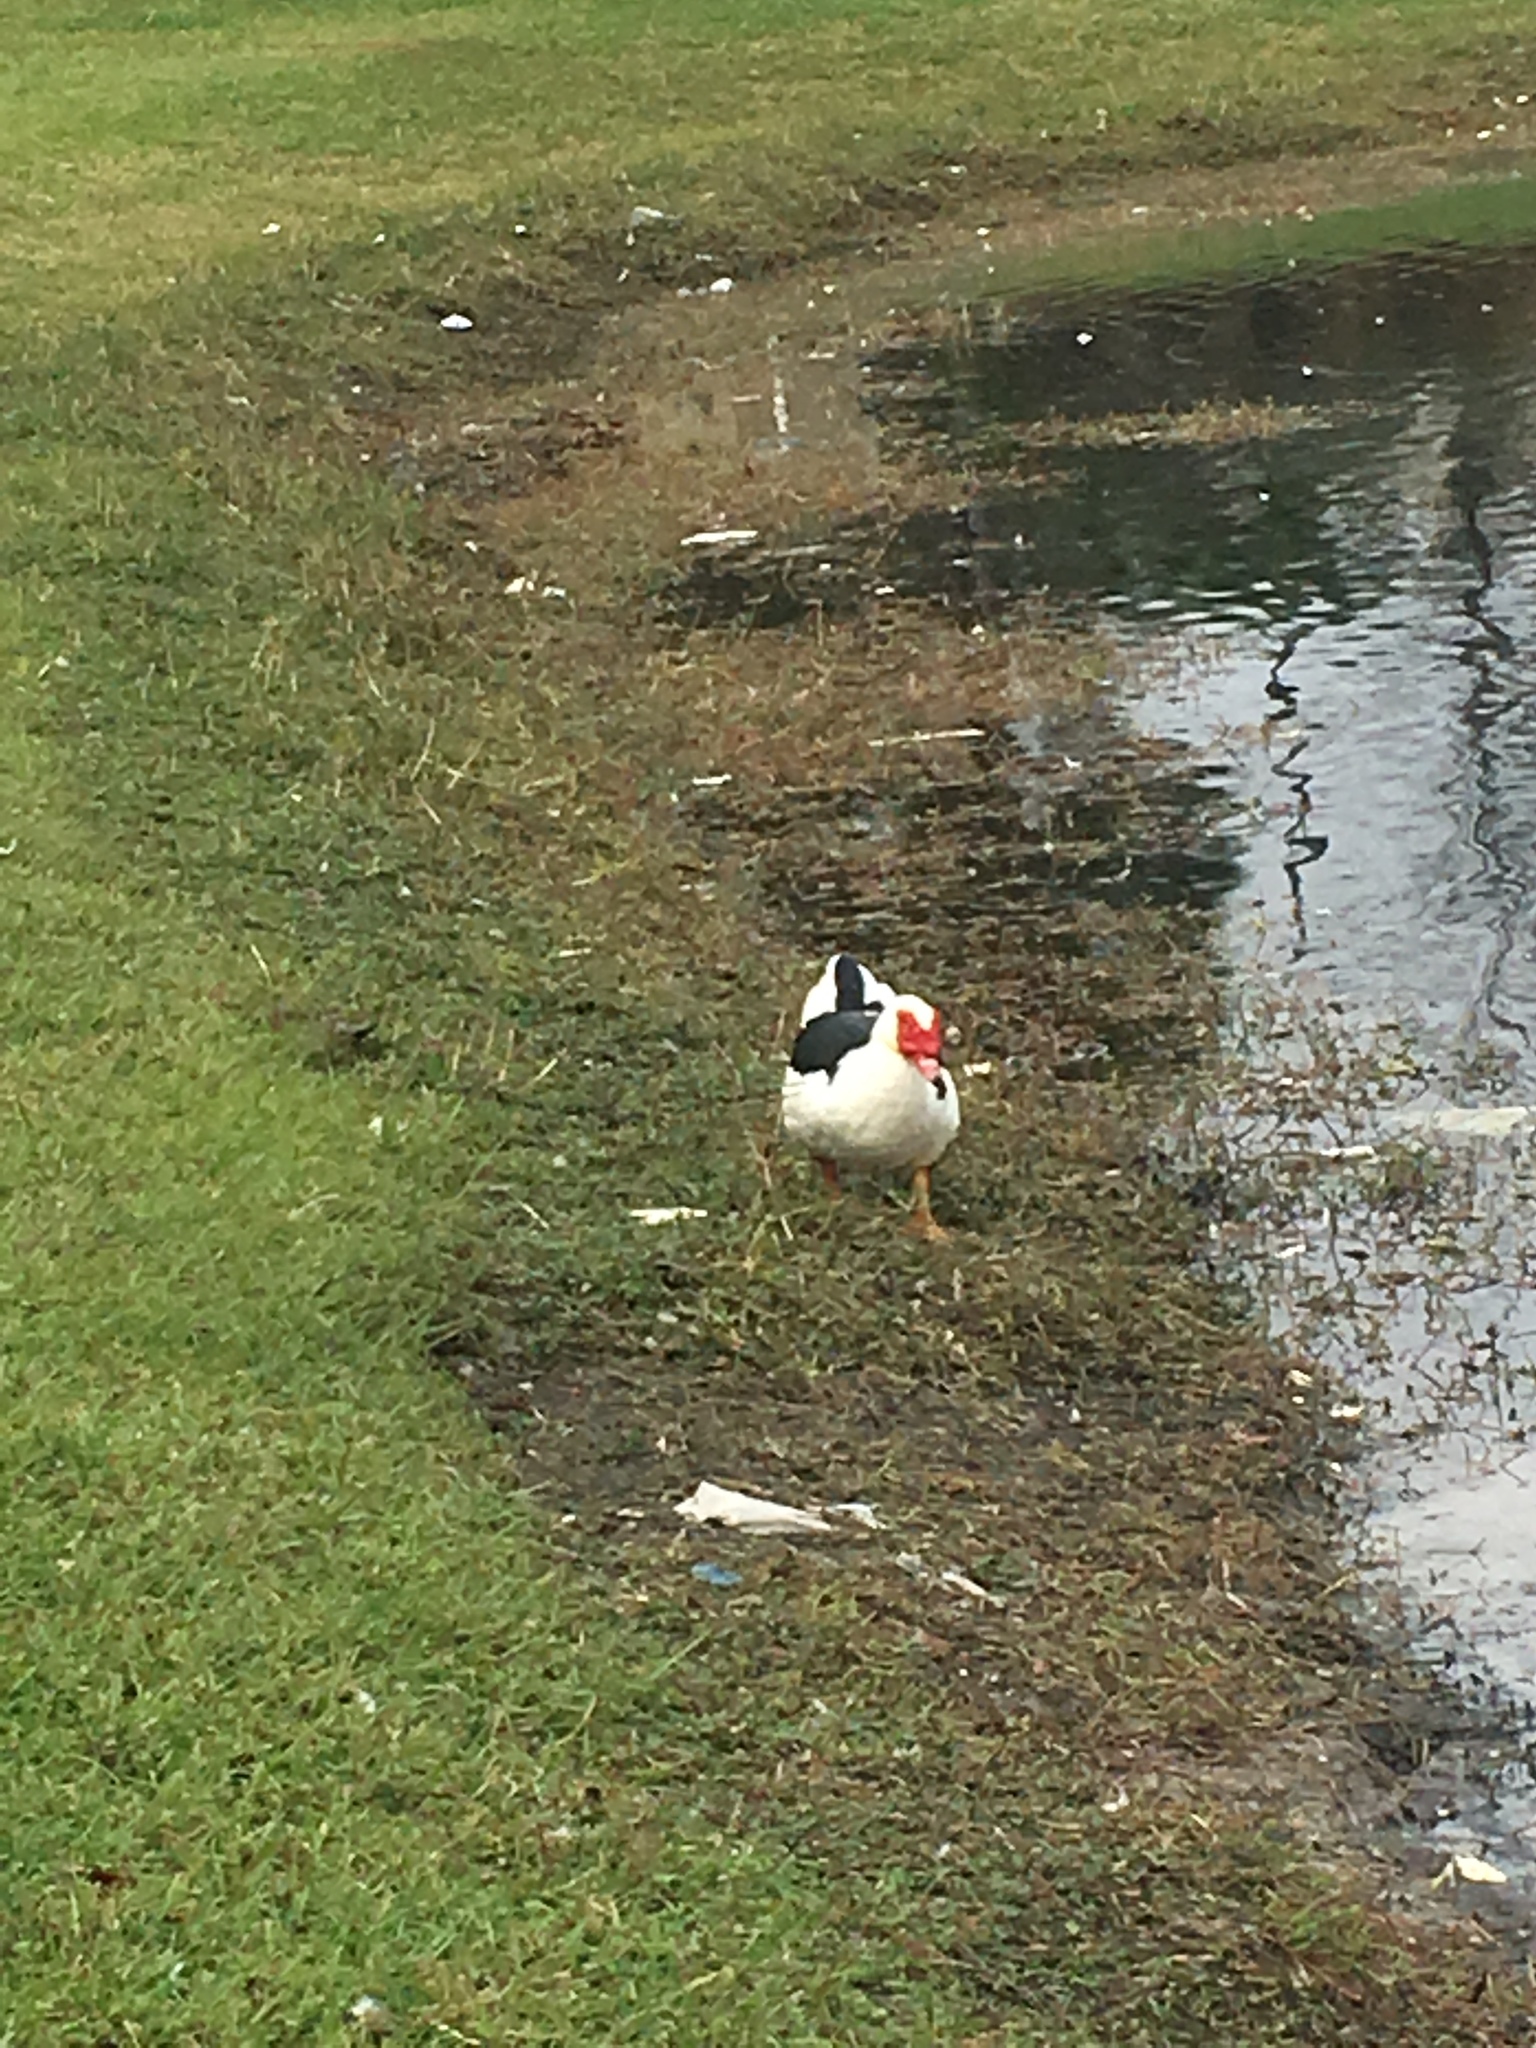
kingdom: Animalia
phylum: Chordata
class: Aves
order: Anseriformes
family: Anatidae
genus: Cairina
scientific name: Cairina moschata
